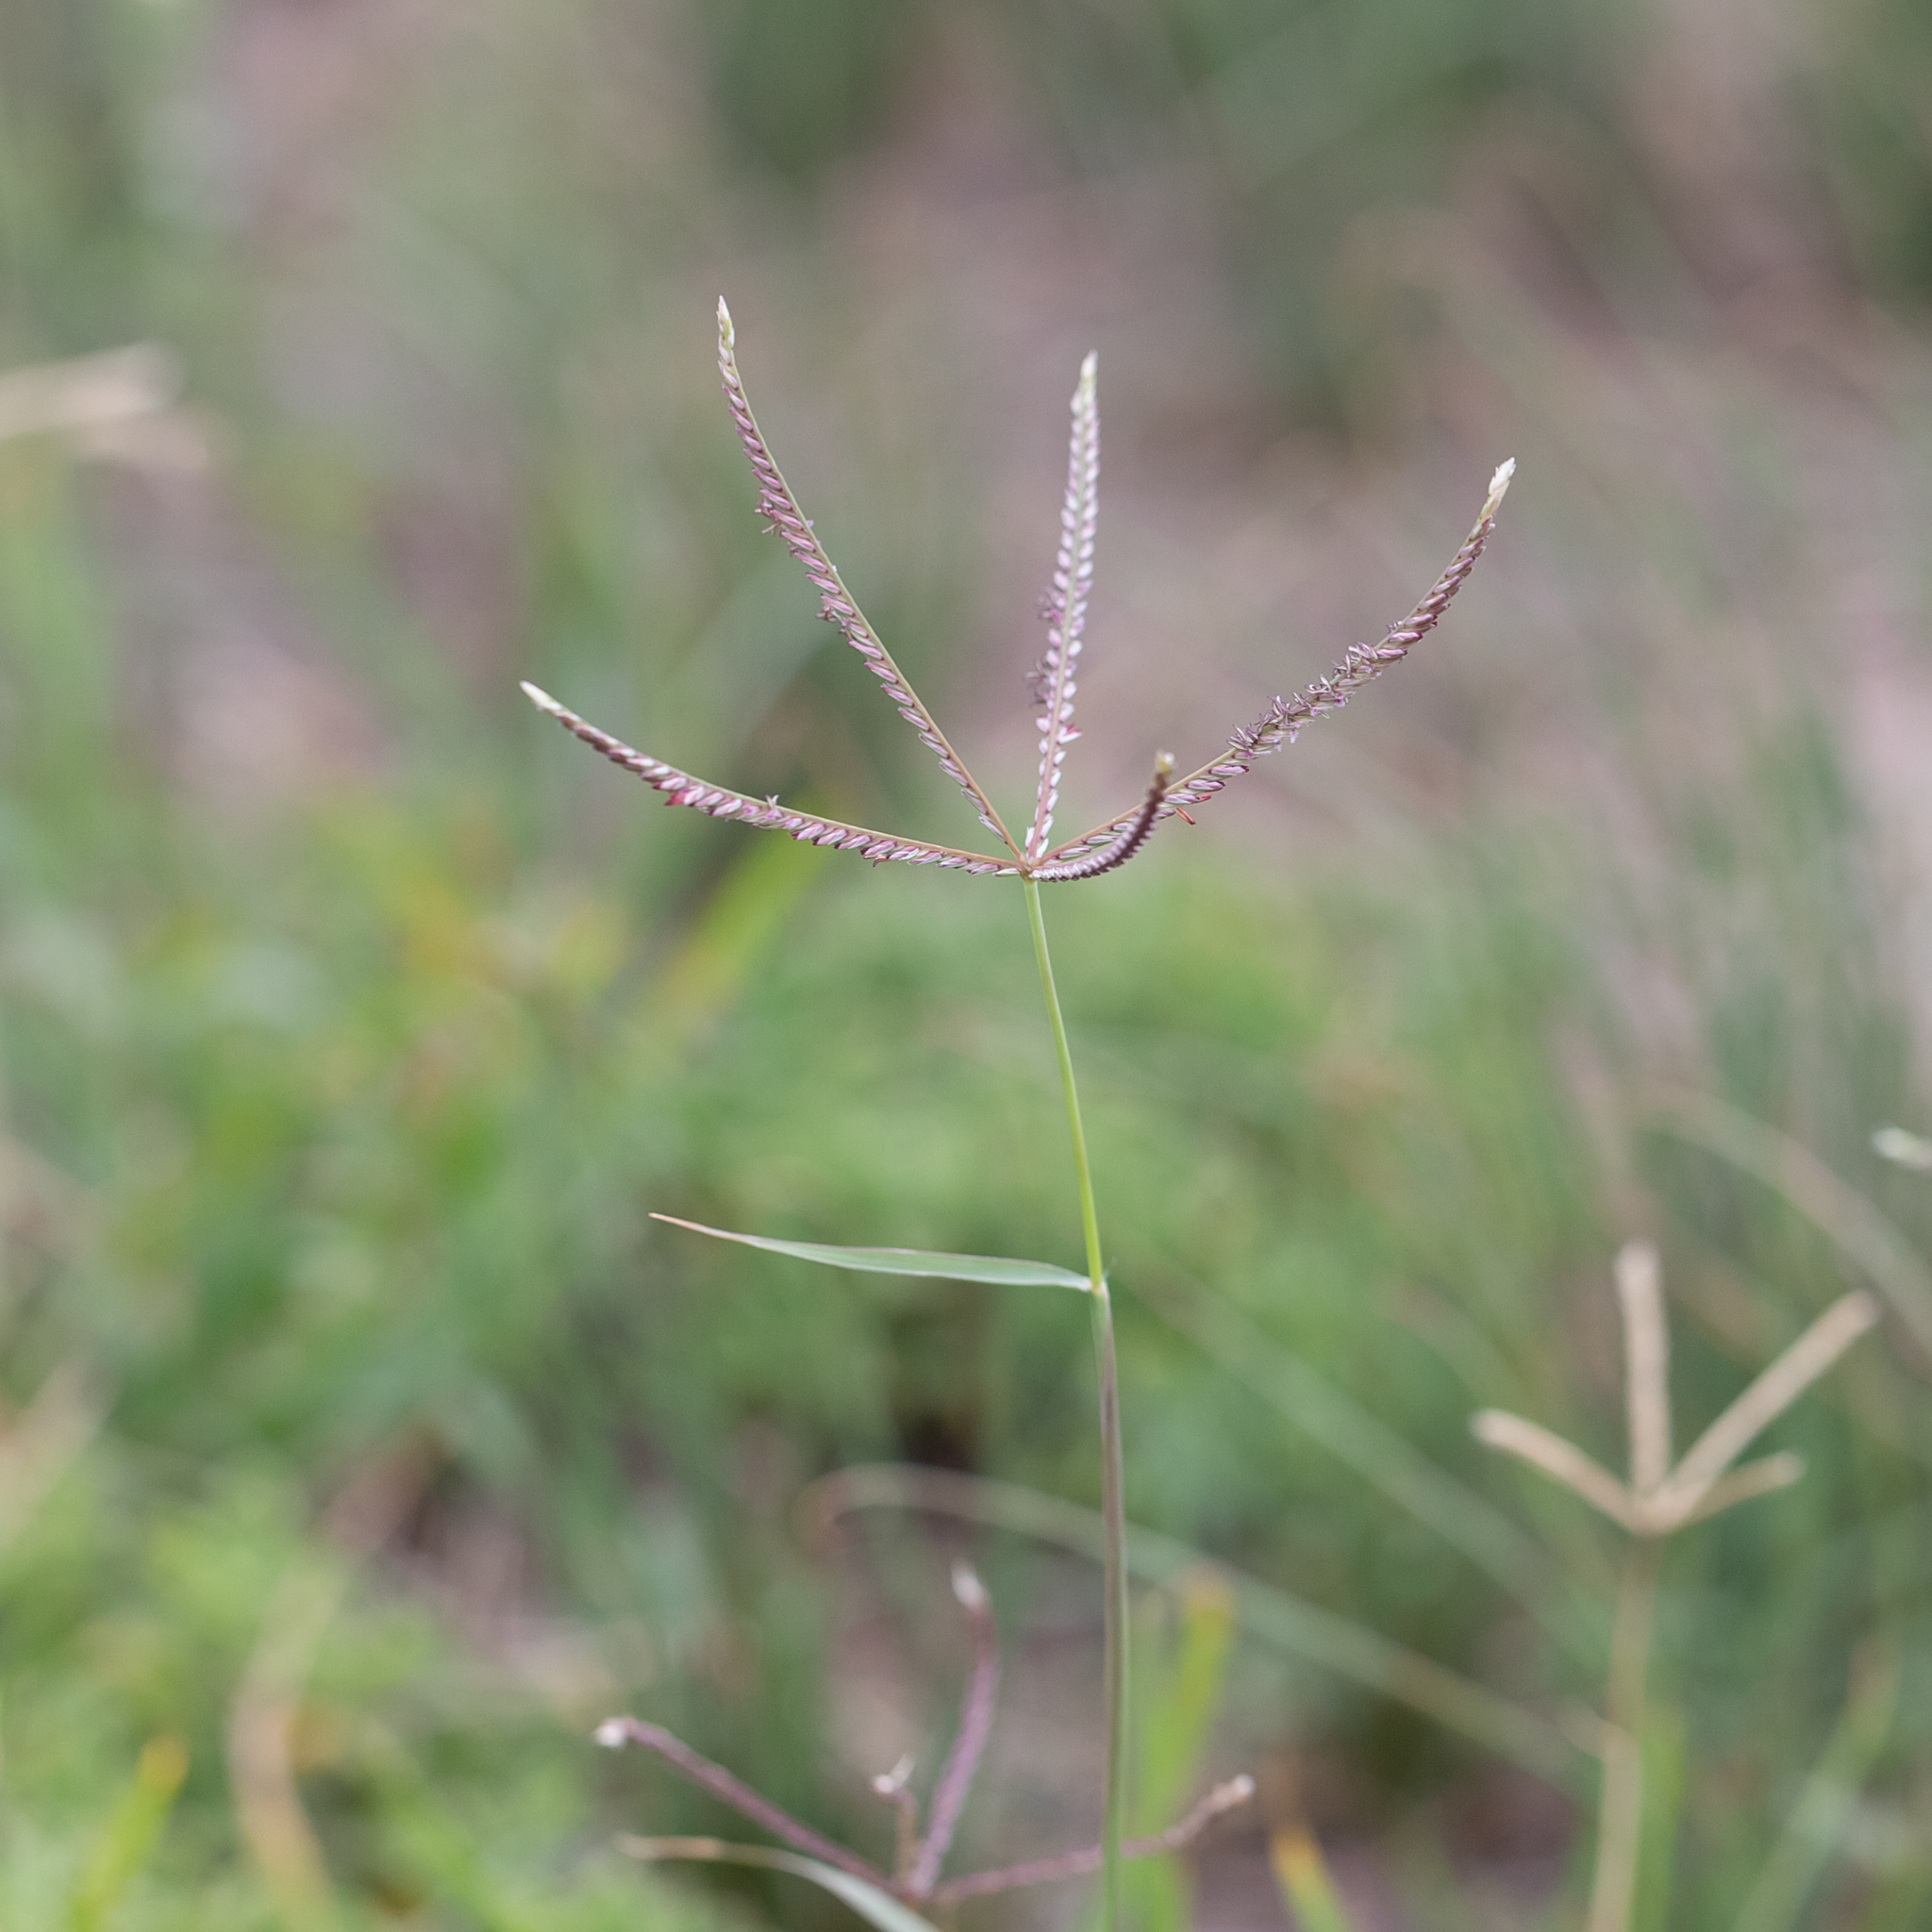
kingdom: Plantae
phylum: Tracheophyta
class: Liliopsida
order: Poales
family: Poaceae
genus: Cynodon
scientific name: Cynodon dactylon
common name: Bermuda grass
